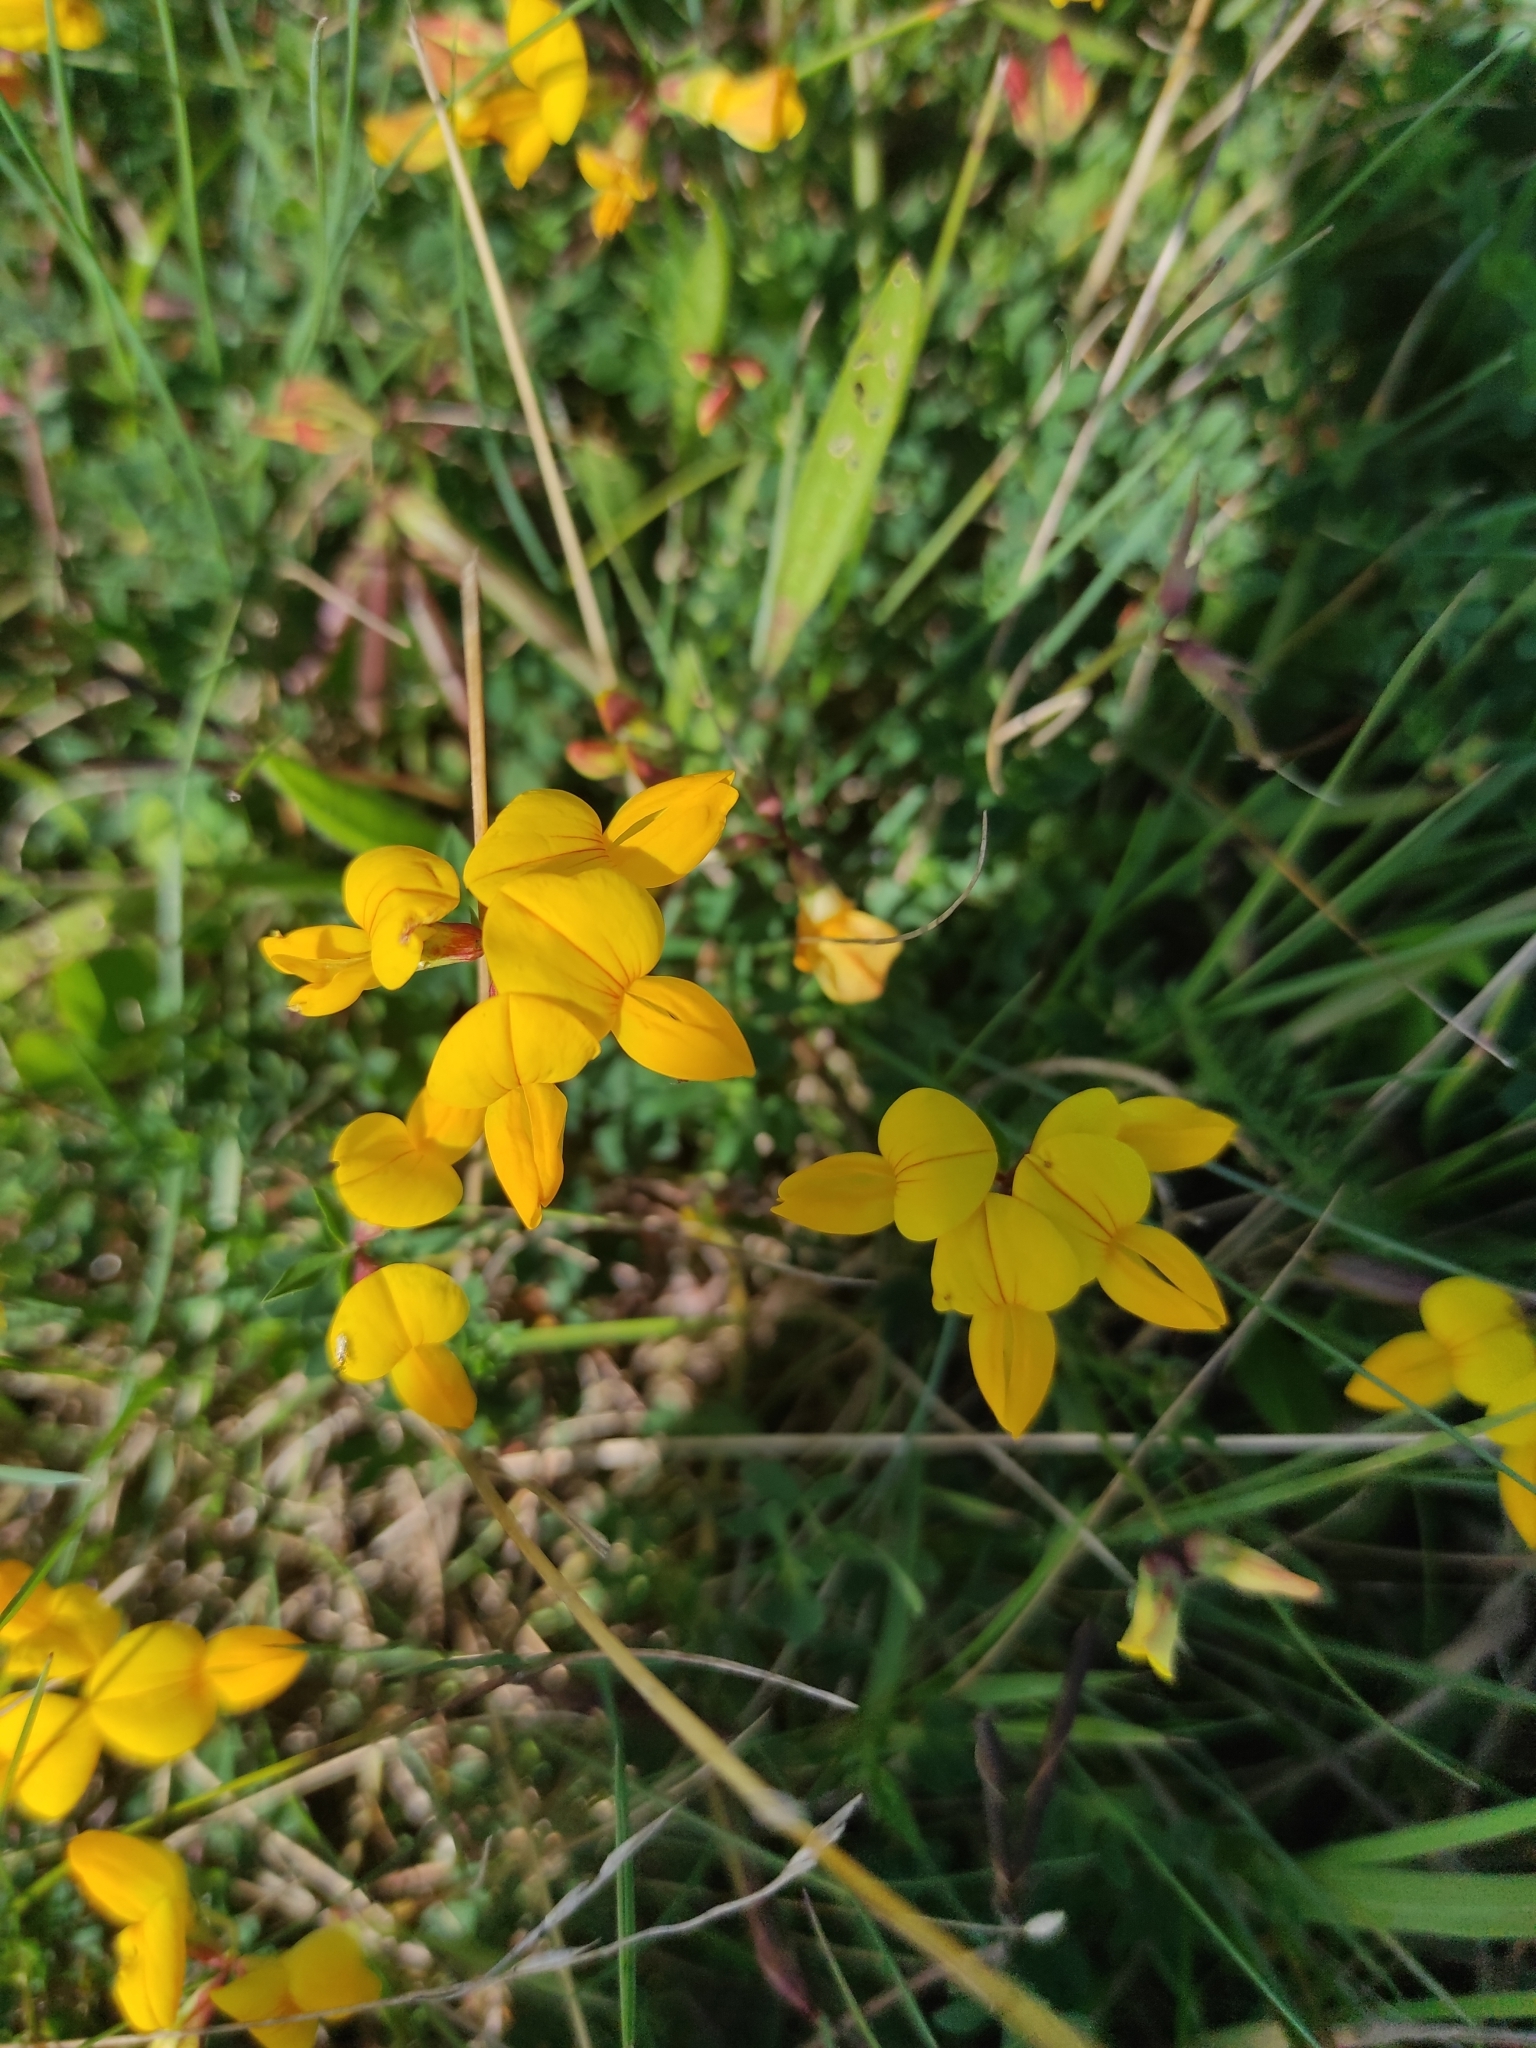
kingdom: Plantae
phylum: Tracheophyta
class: Magnoliopsida
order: Fabales
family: Fabaceae
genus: Lotus
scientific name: Lotus corniculatus
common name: Common bird's-foot-trefoil
